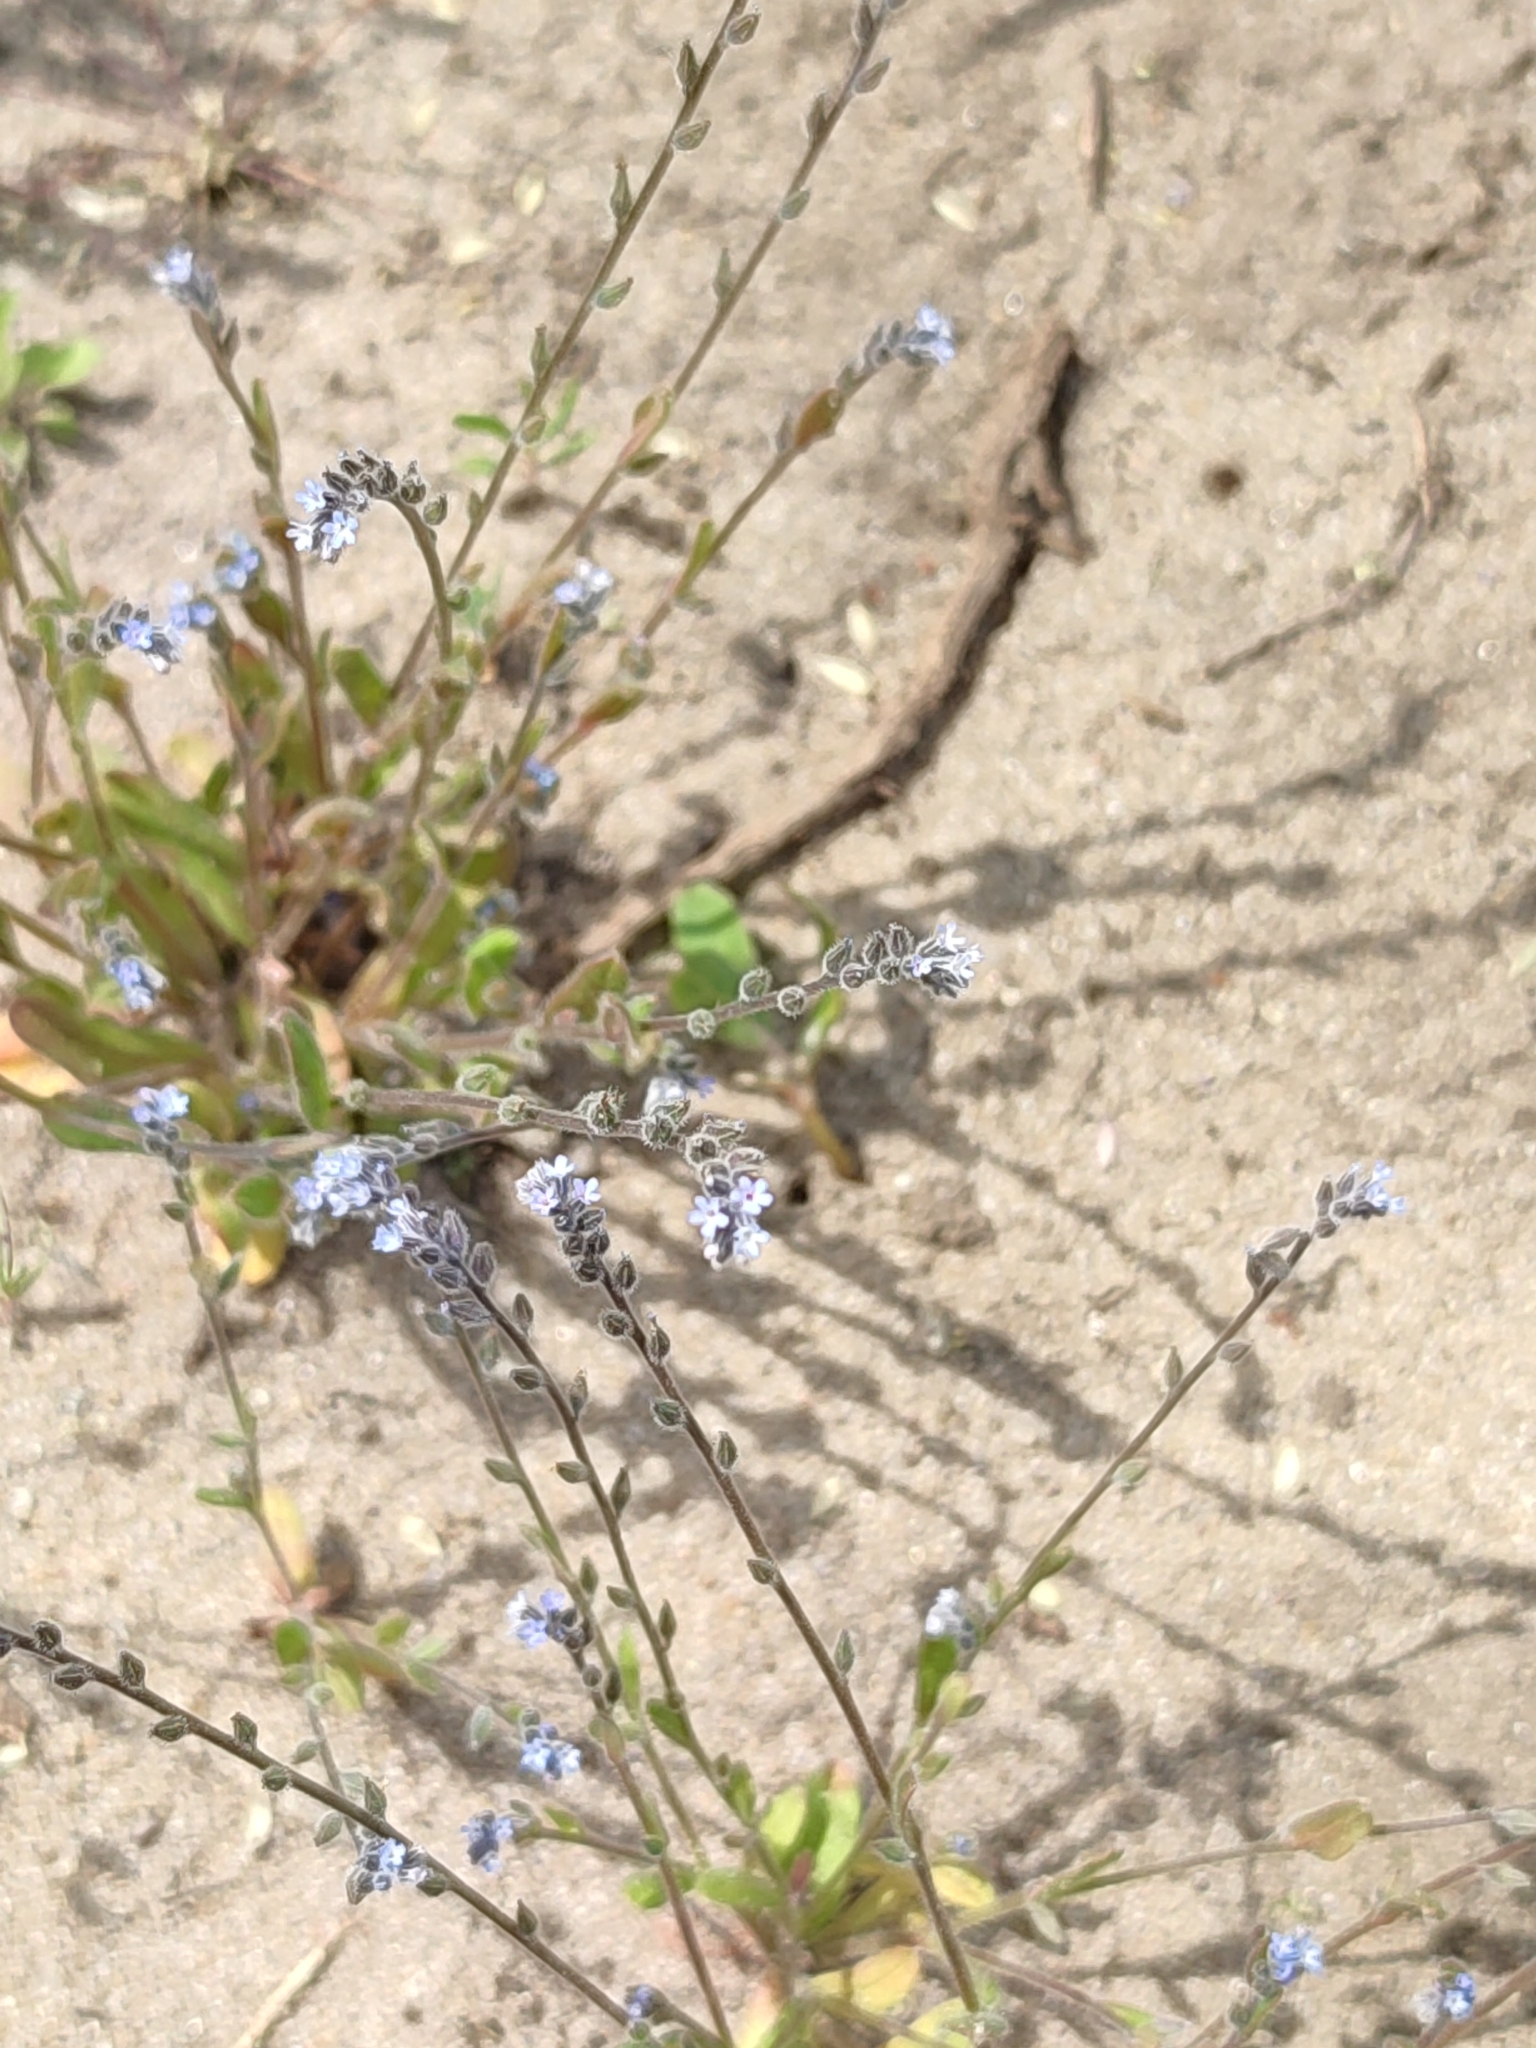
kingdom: Plantae
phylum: Tracheophyta
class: Magnoliopsida
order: Boraginales
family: Boraginaceae
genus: Myosotis
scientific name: Myosotis stricta
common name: Strict forget-me-not
